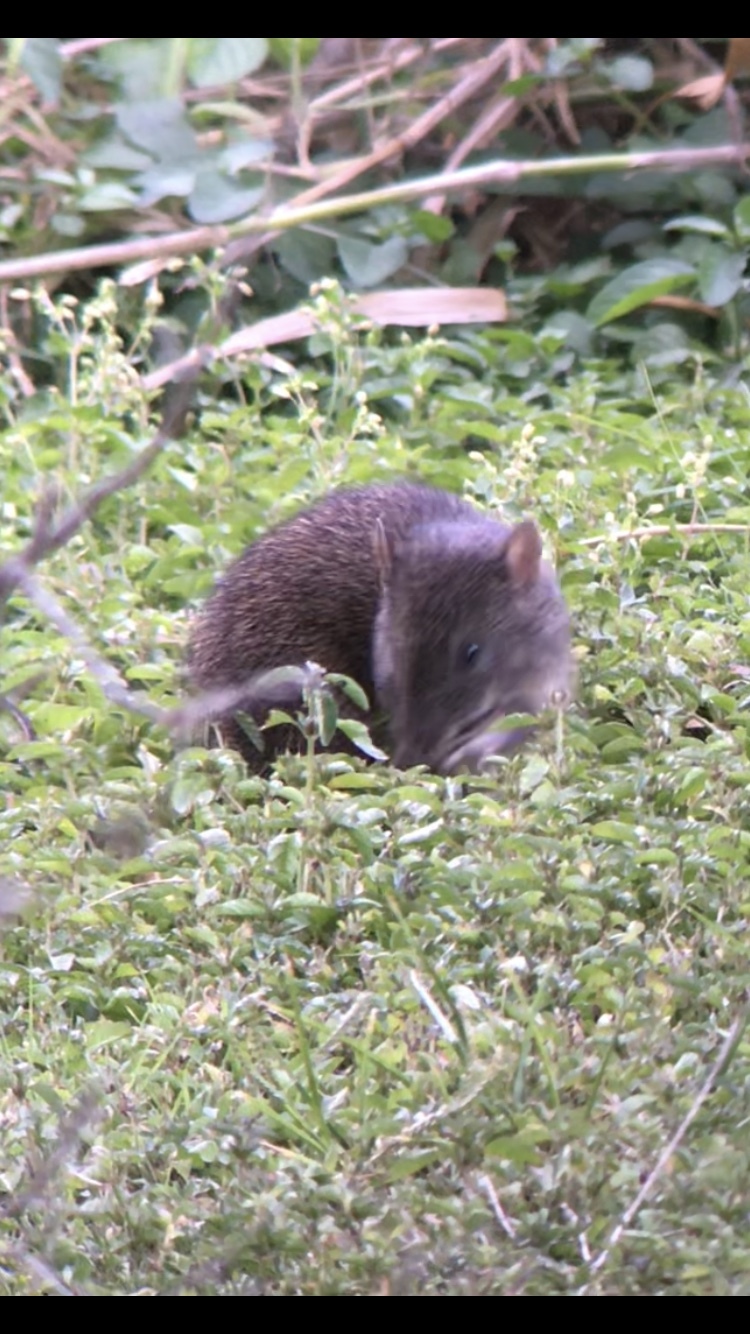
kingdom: Animalia
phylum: Chordata
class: Mammalia
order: Peramelemorphia
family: Peramelidae
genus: Isoodon
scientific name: Isoodon macrourus
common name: Northern brown bandicoot
